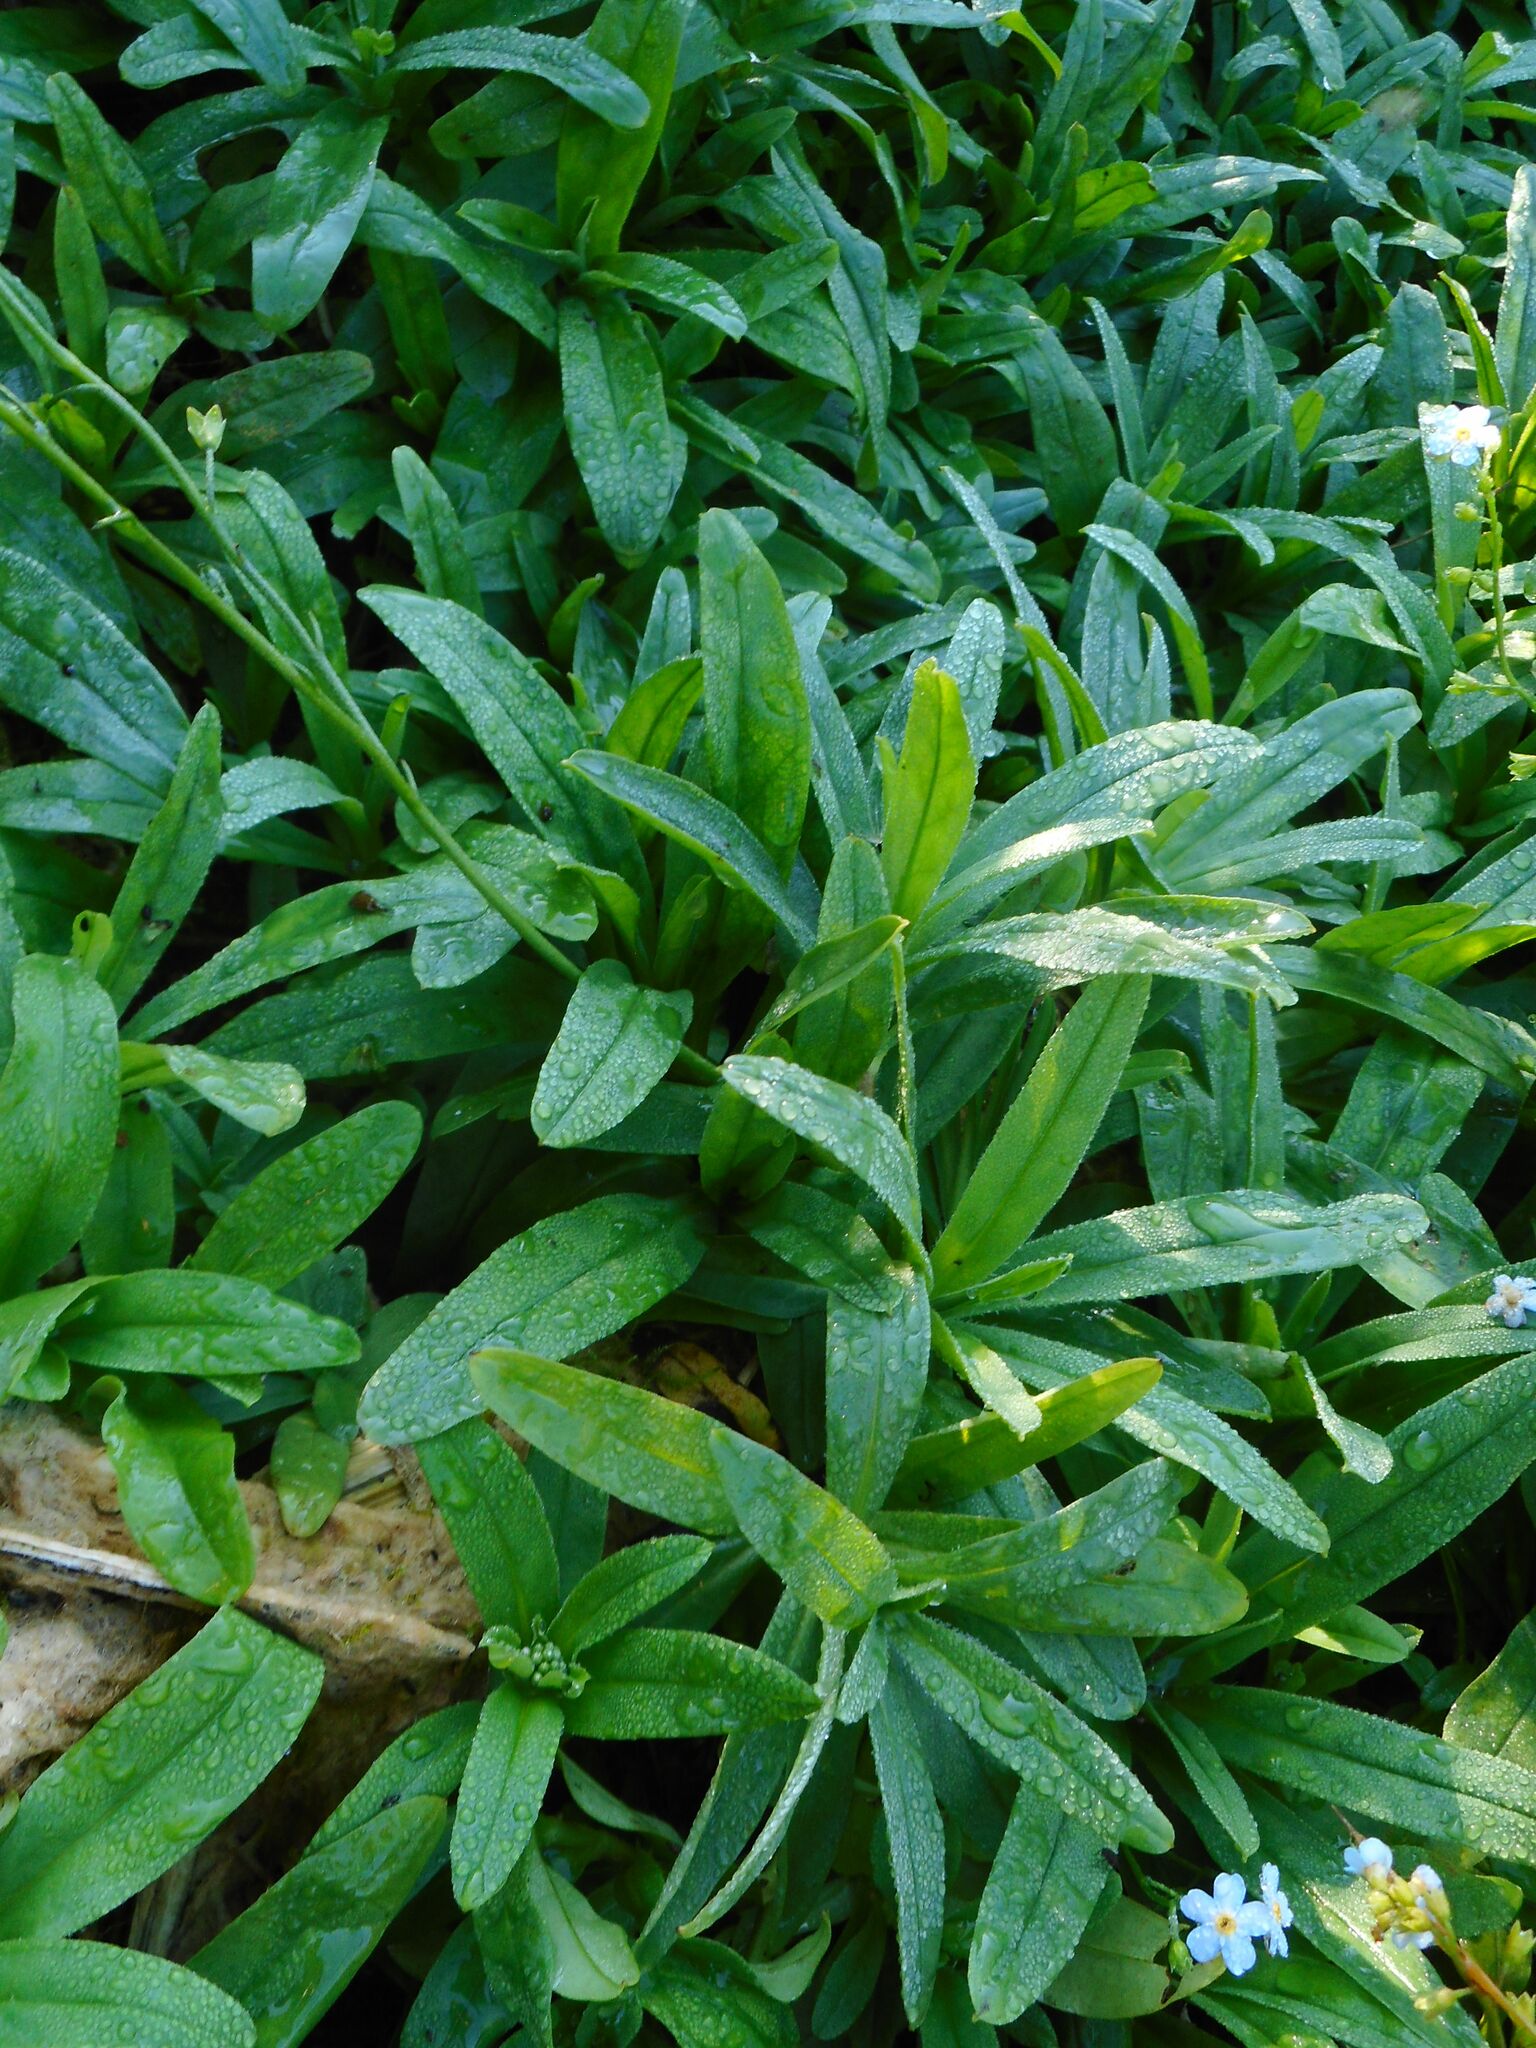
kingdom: Plantae
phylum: Tracheophyta
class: Magnoliopsida
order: Boraginales
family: Boraginaceae
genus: Myosotis
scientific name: Myosotis scorpioides
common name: Water forget-me-not
